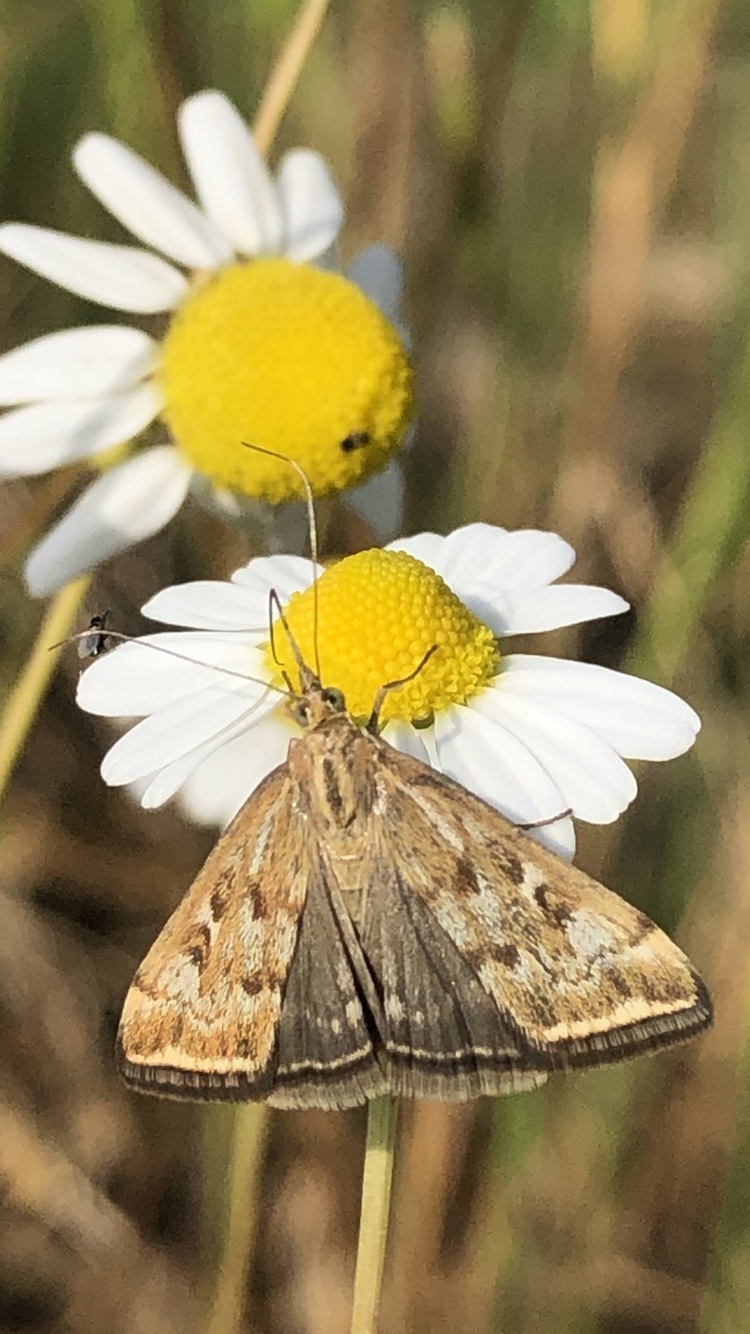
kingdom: Animalia
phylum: Arthropoda
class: Insecta
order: Lepidoptera
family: Crambidae
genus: Loxostege
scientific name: Loxostege sticticalis
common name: Crambid moth
